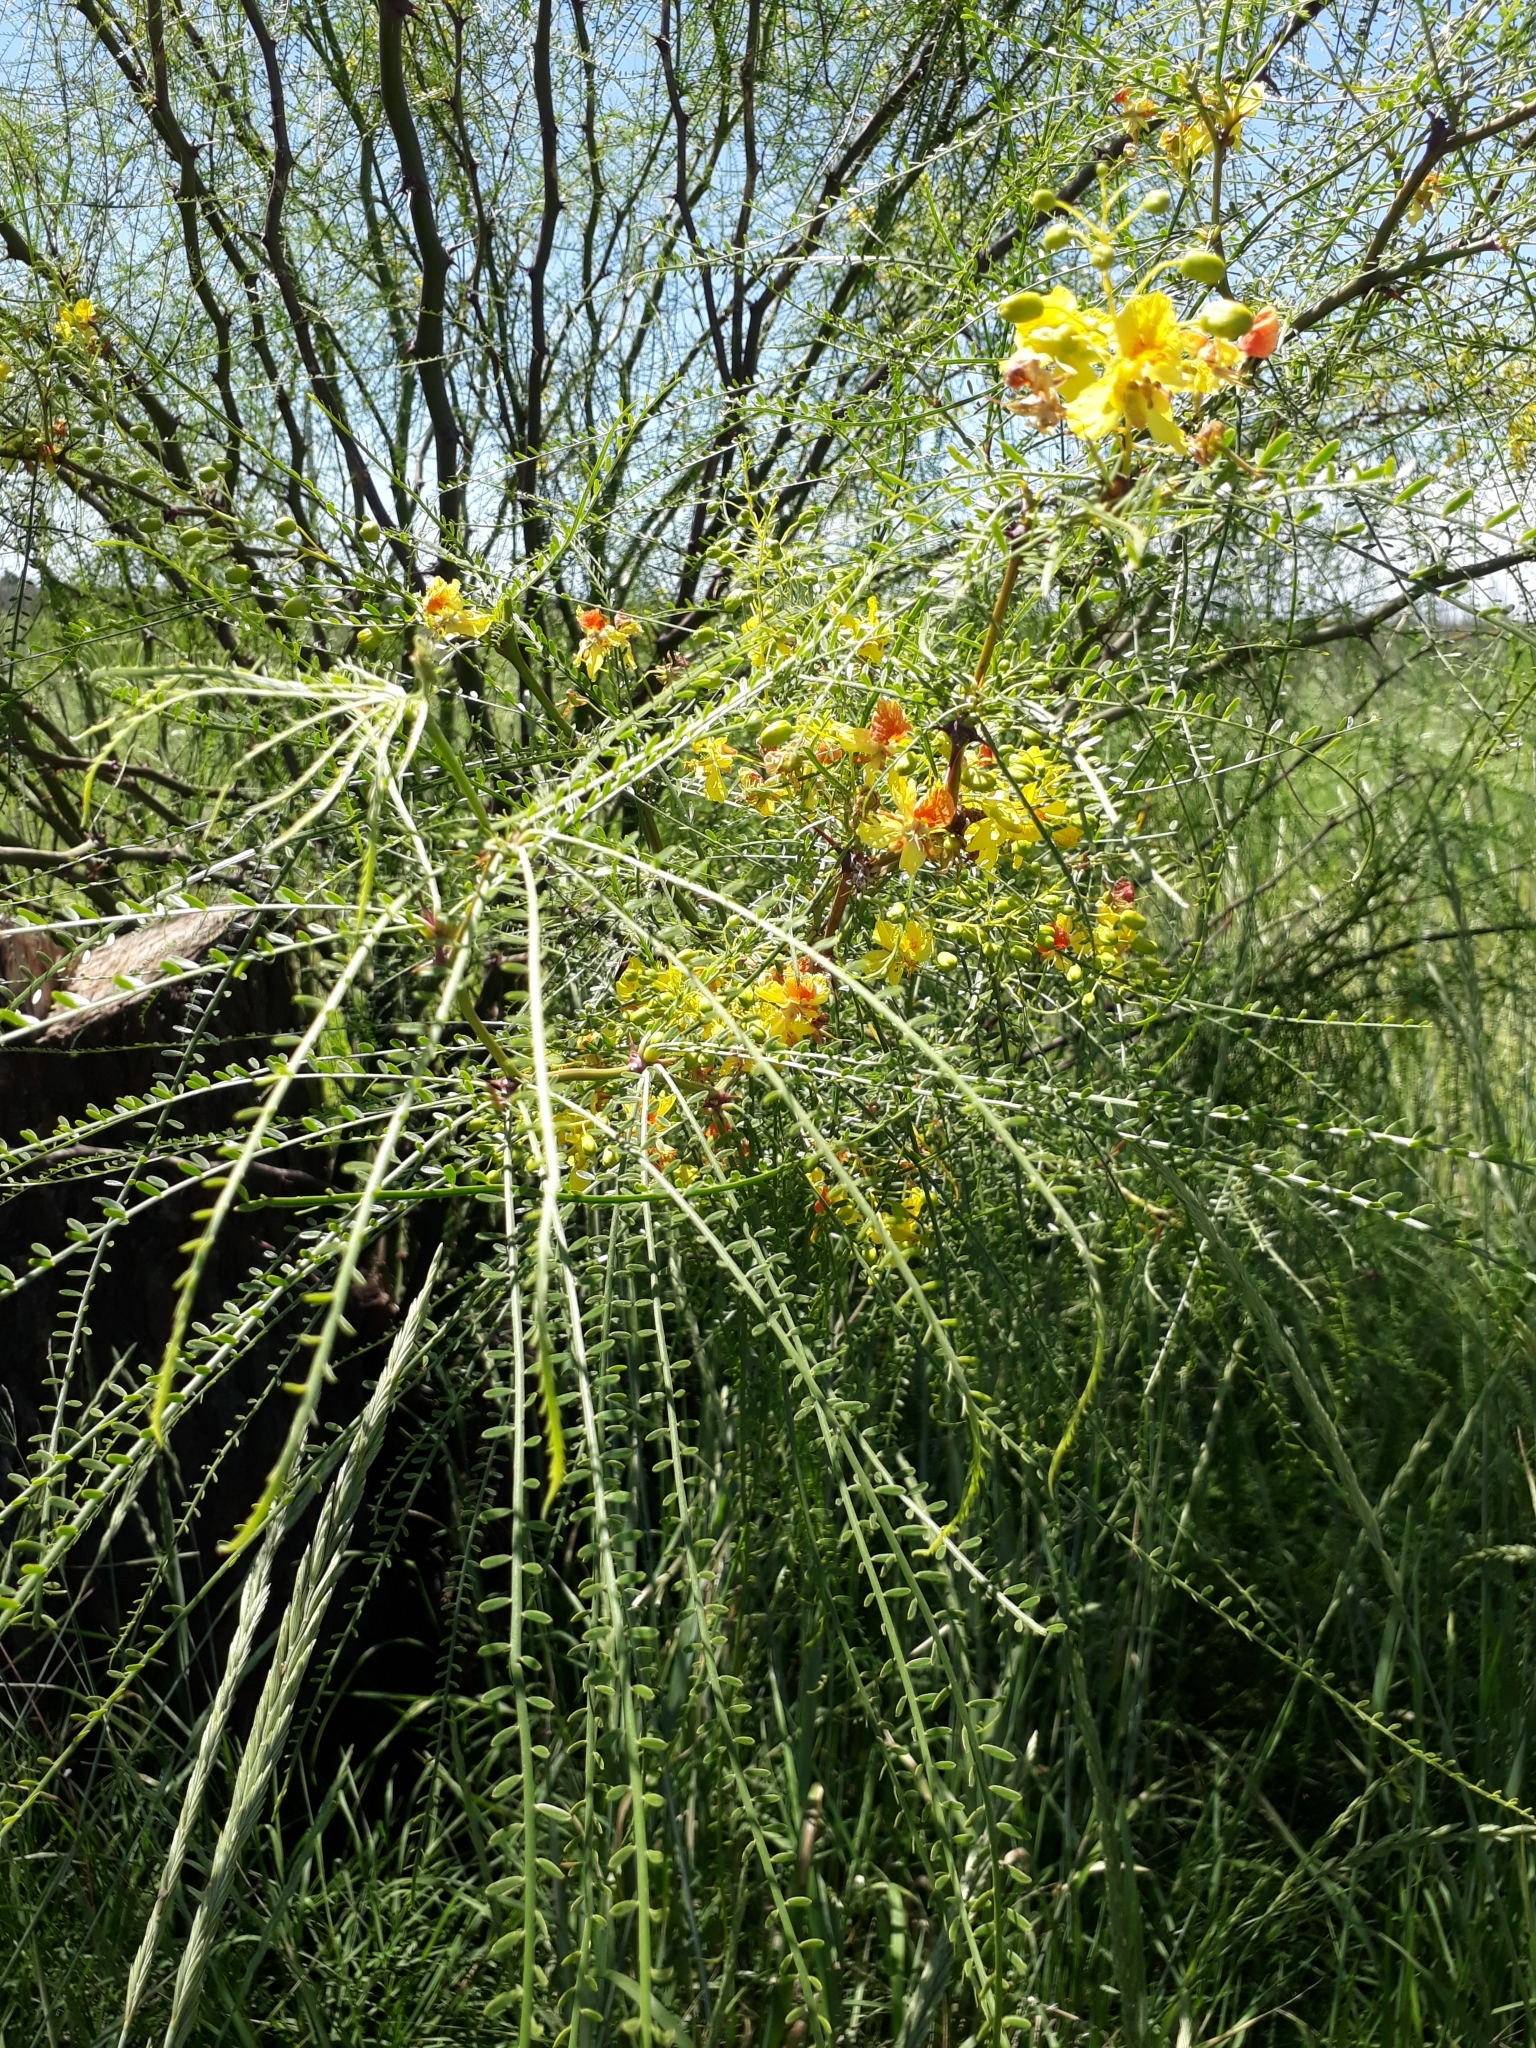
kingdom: Plantae
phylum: Tracheophyta
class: Magnoliopsida
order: Fabales
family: Fabaceae
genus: Parkinsonia
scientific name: Parkinsonia aculeata
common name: Jerusalem thorn
